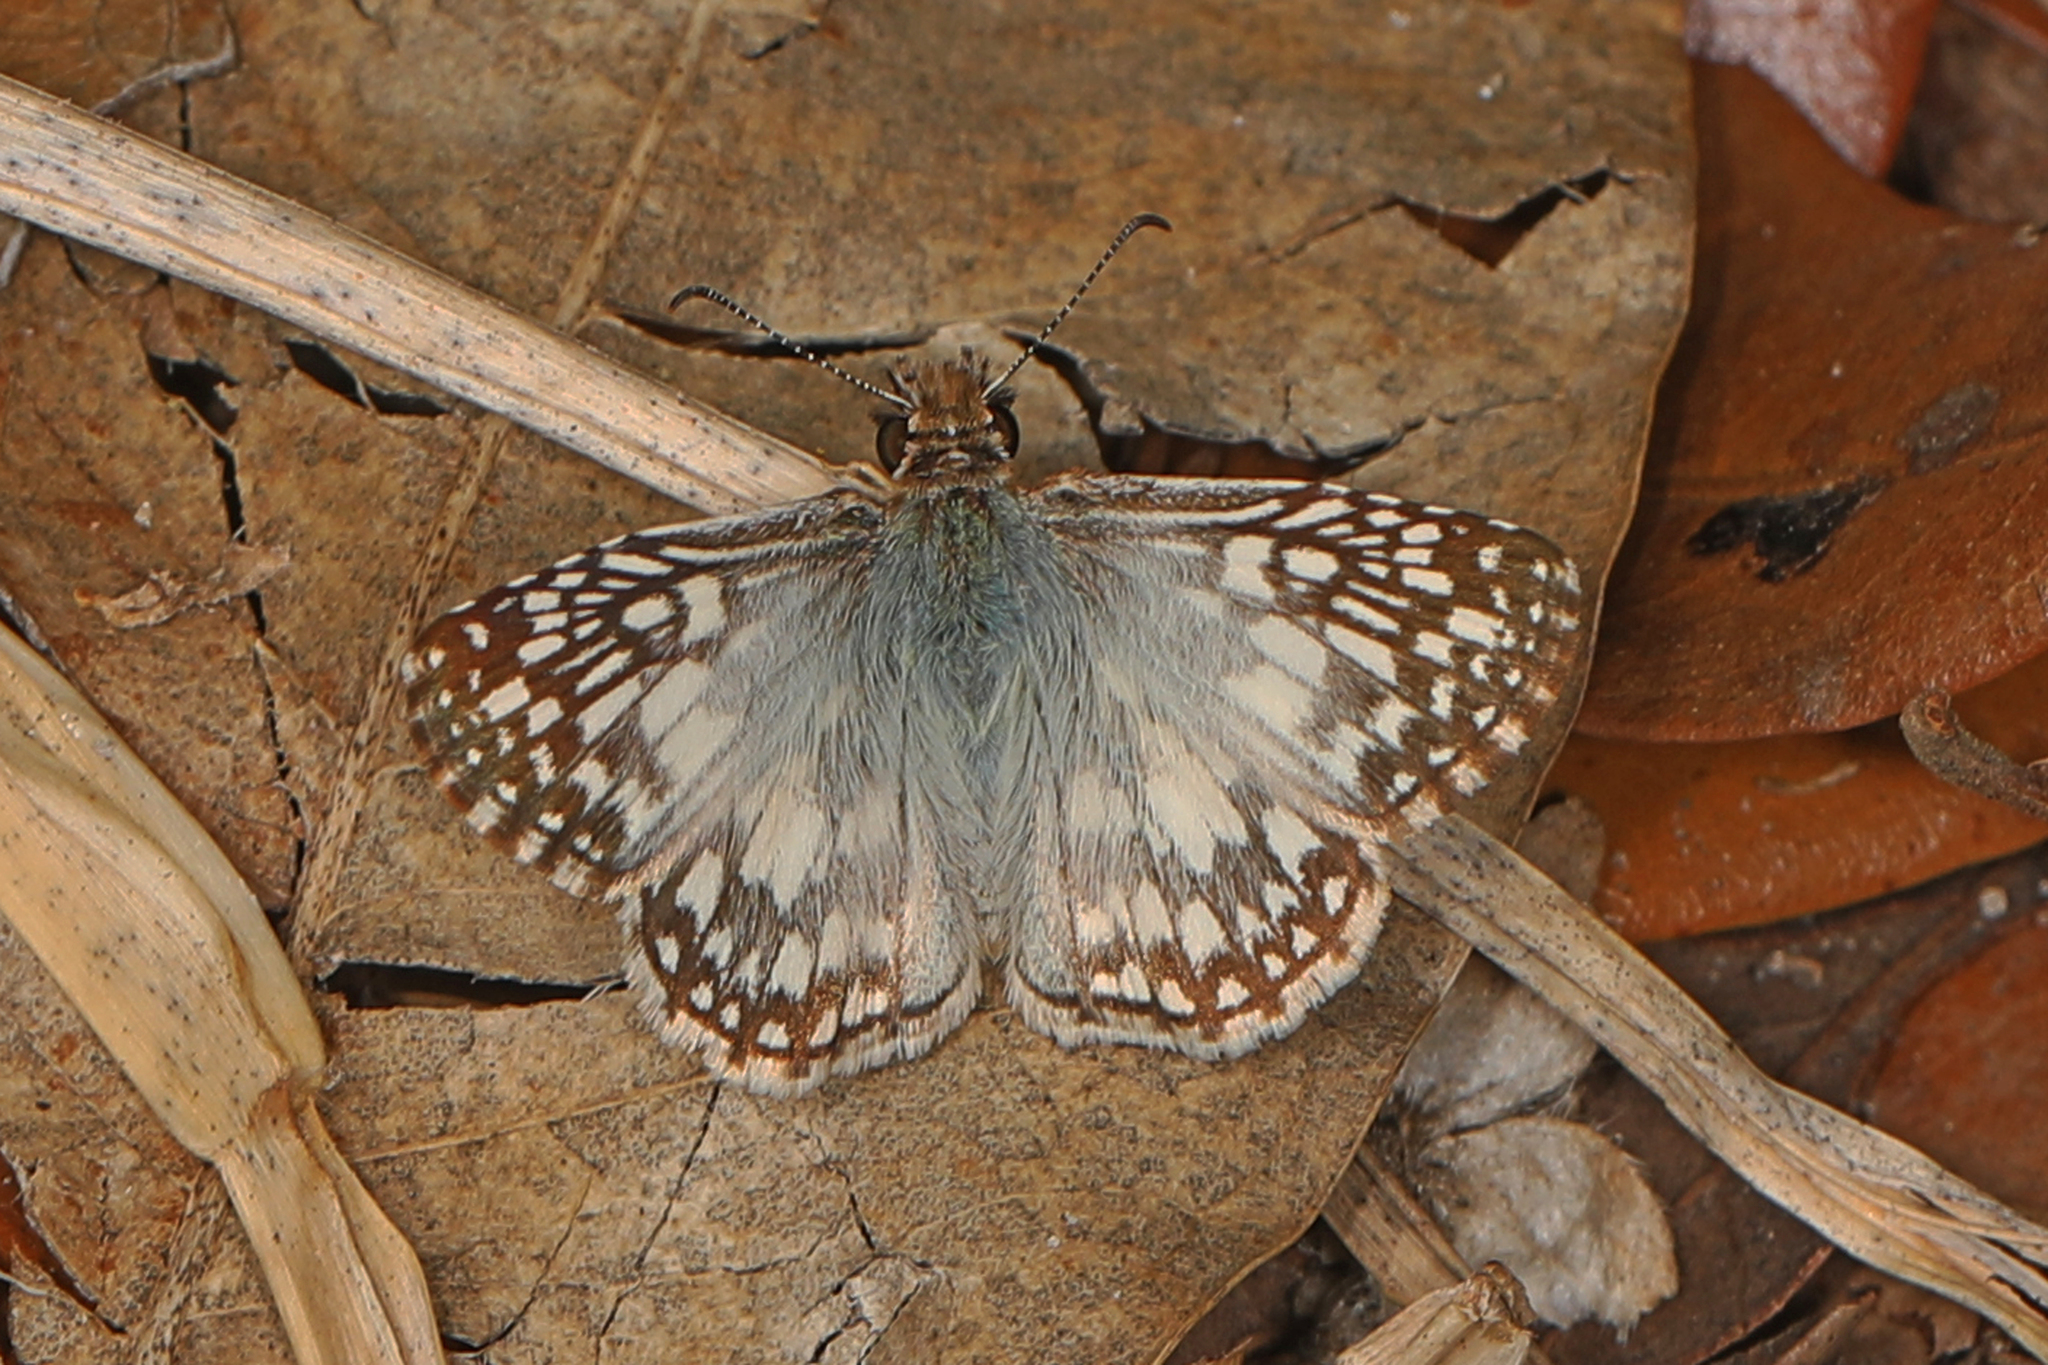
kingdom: Animalia
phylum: Arthropoda
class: Insecta
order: Lepidoptera
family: Hesperiidae
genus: Pyrgus
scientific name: Pyrgus oileus
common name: Tropical checkered-skipper
